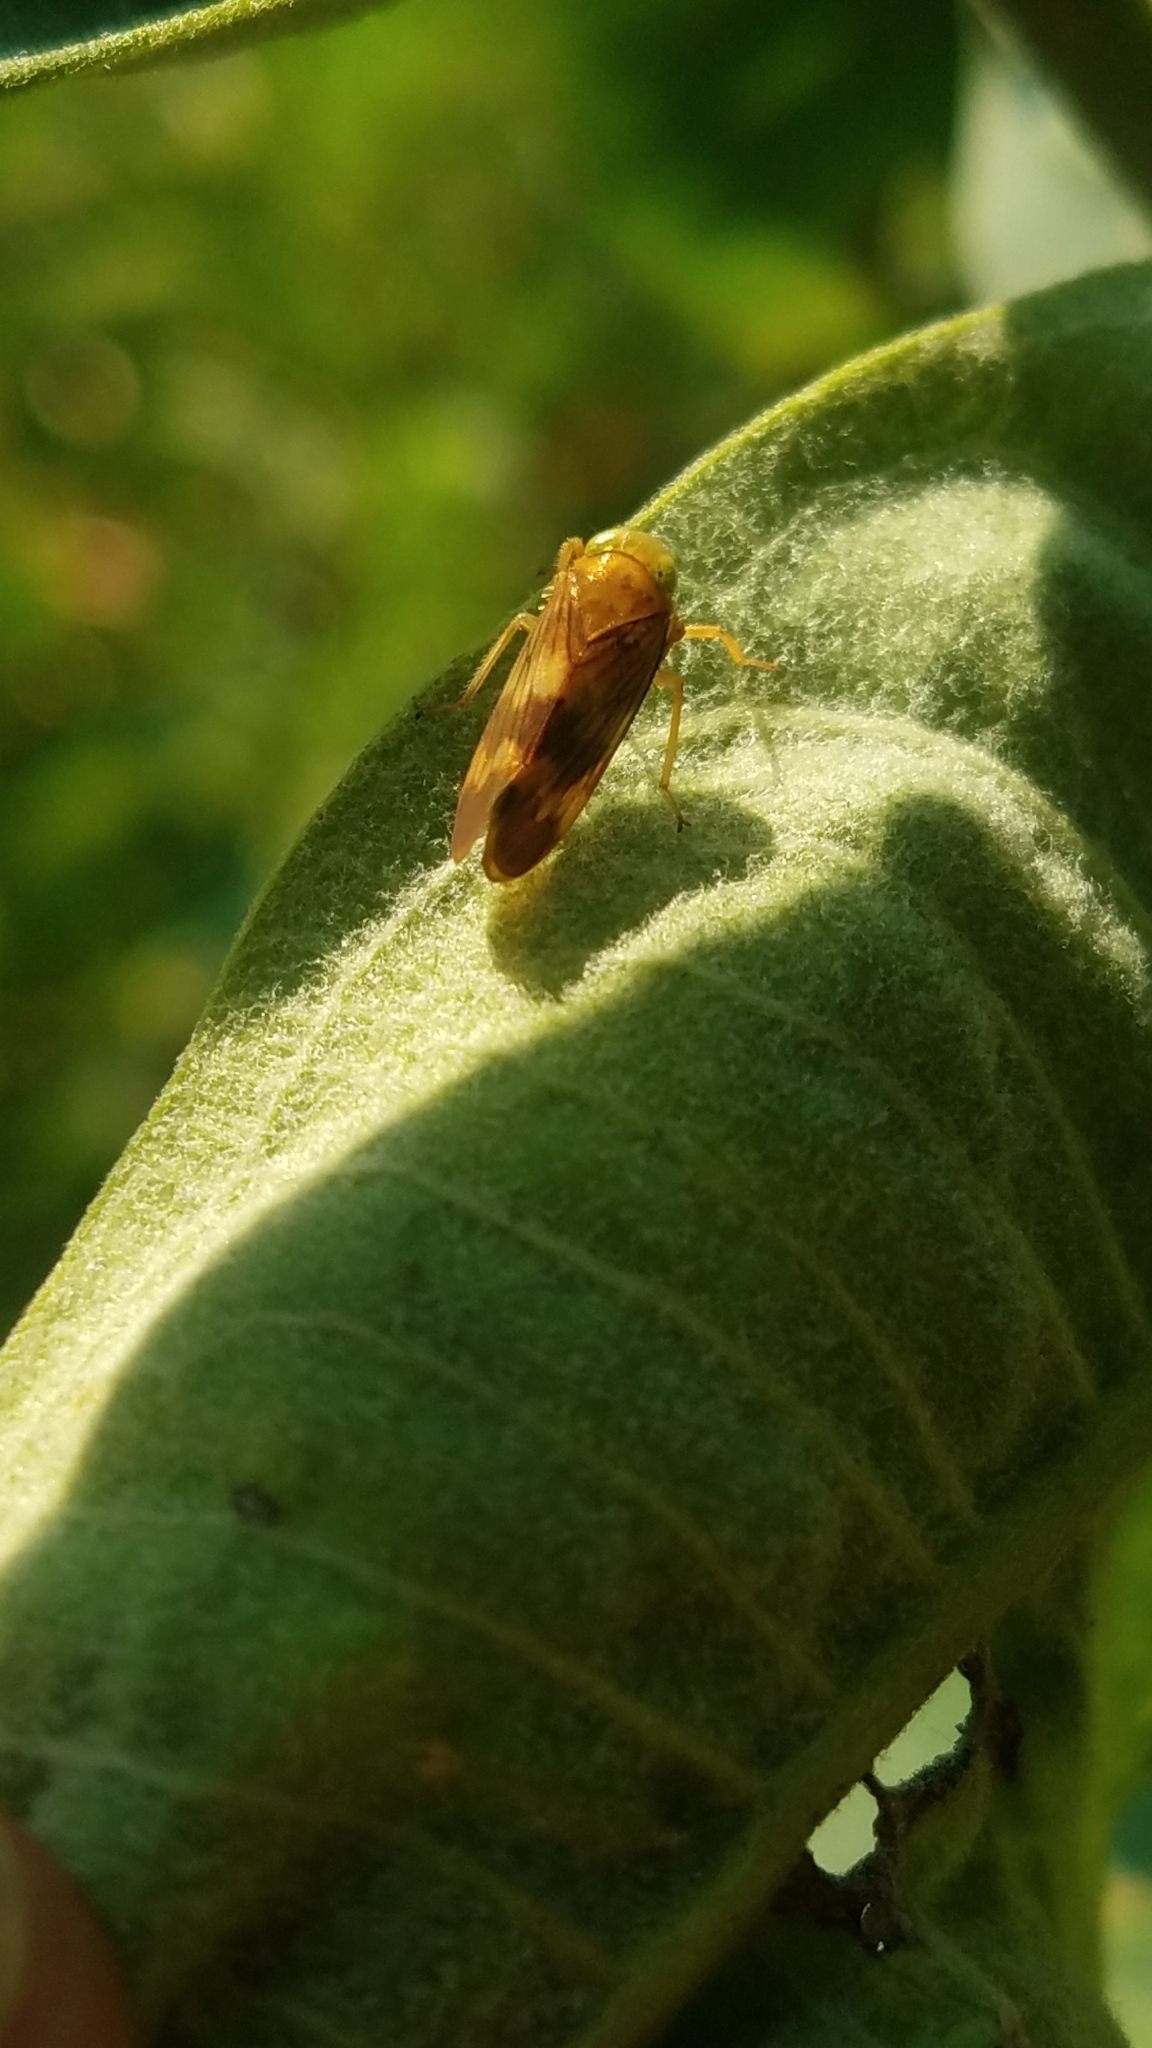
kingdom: Animalia
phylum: Arthropoda
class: Insecta
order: Hemiptera
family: Cicadellidae
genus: Jikradia
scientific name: Jikradia olitoria
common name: Coppery leafhopper
